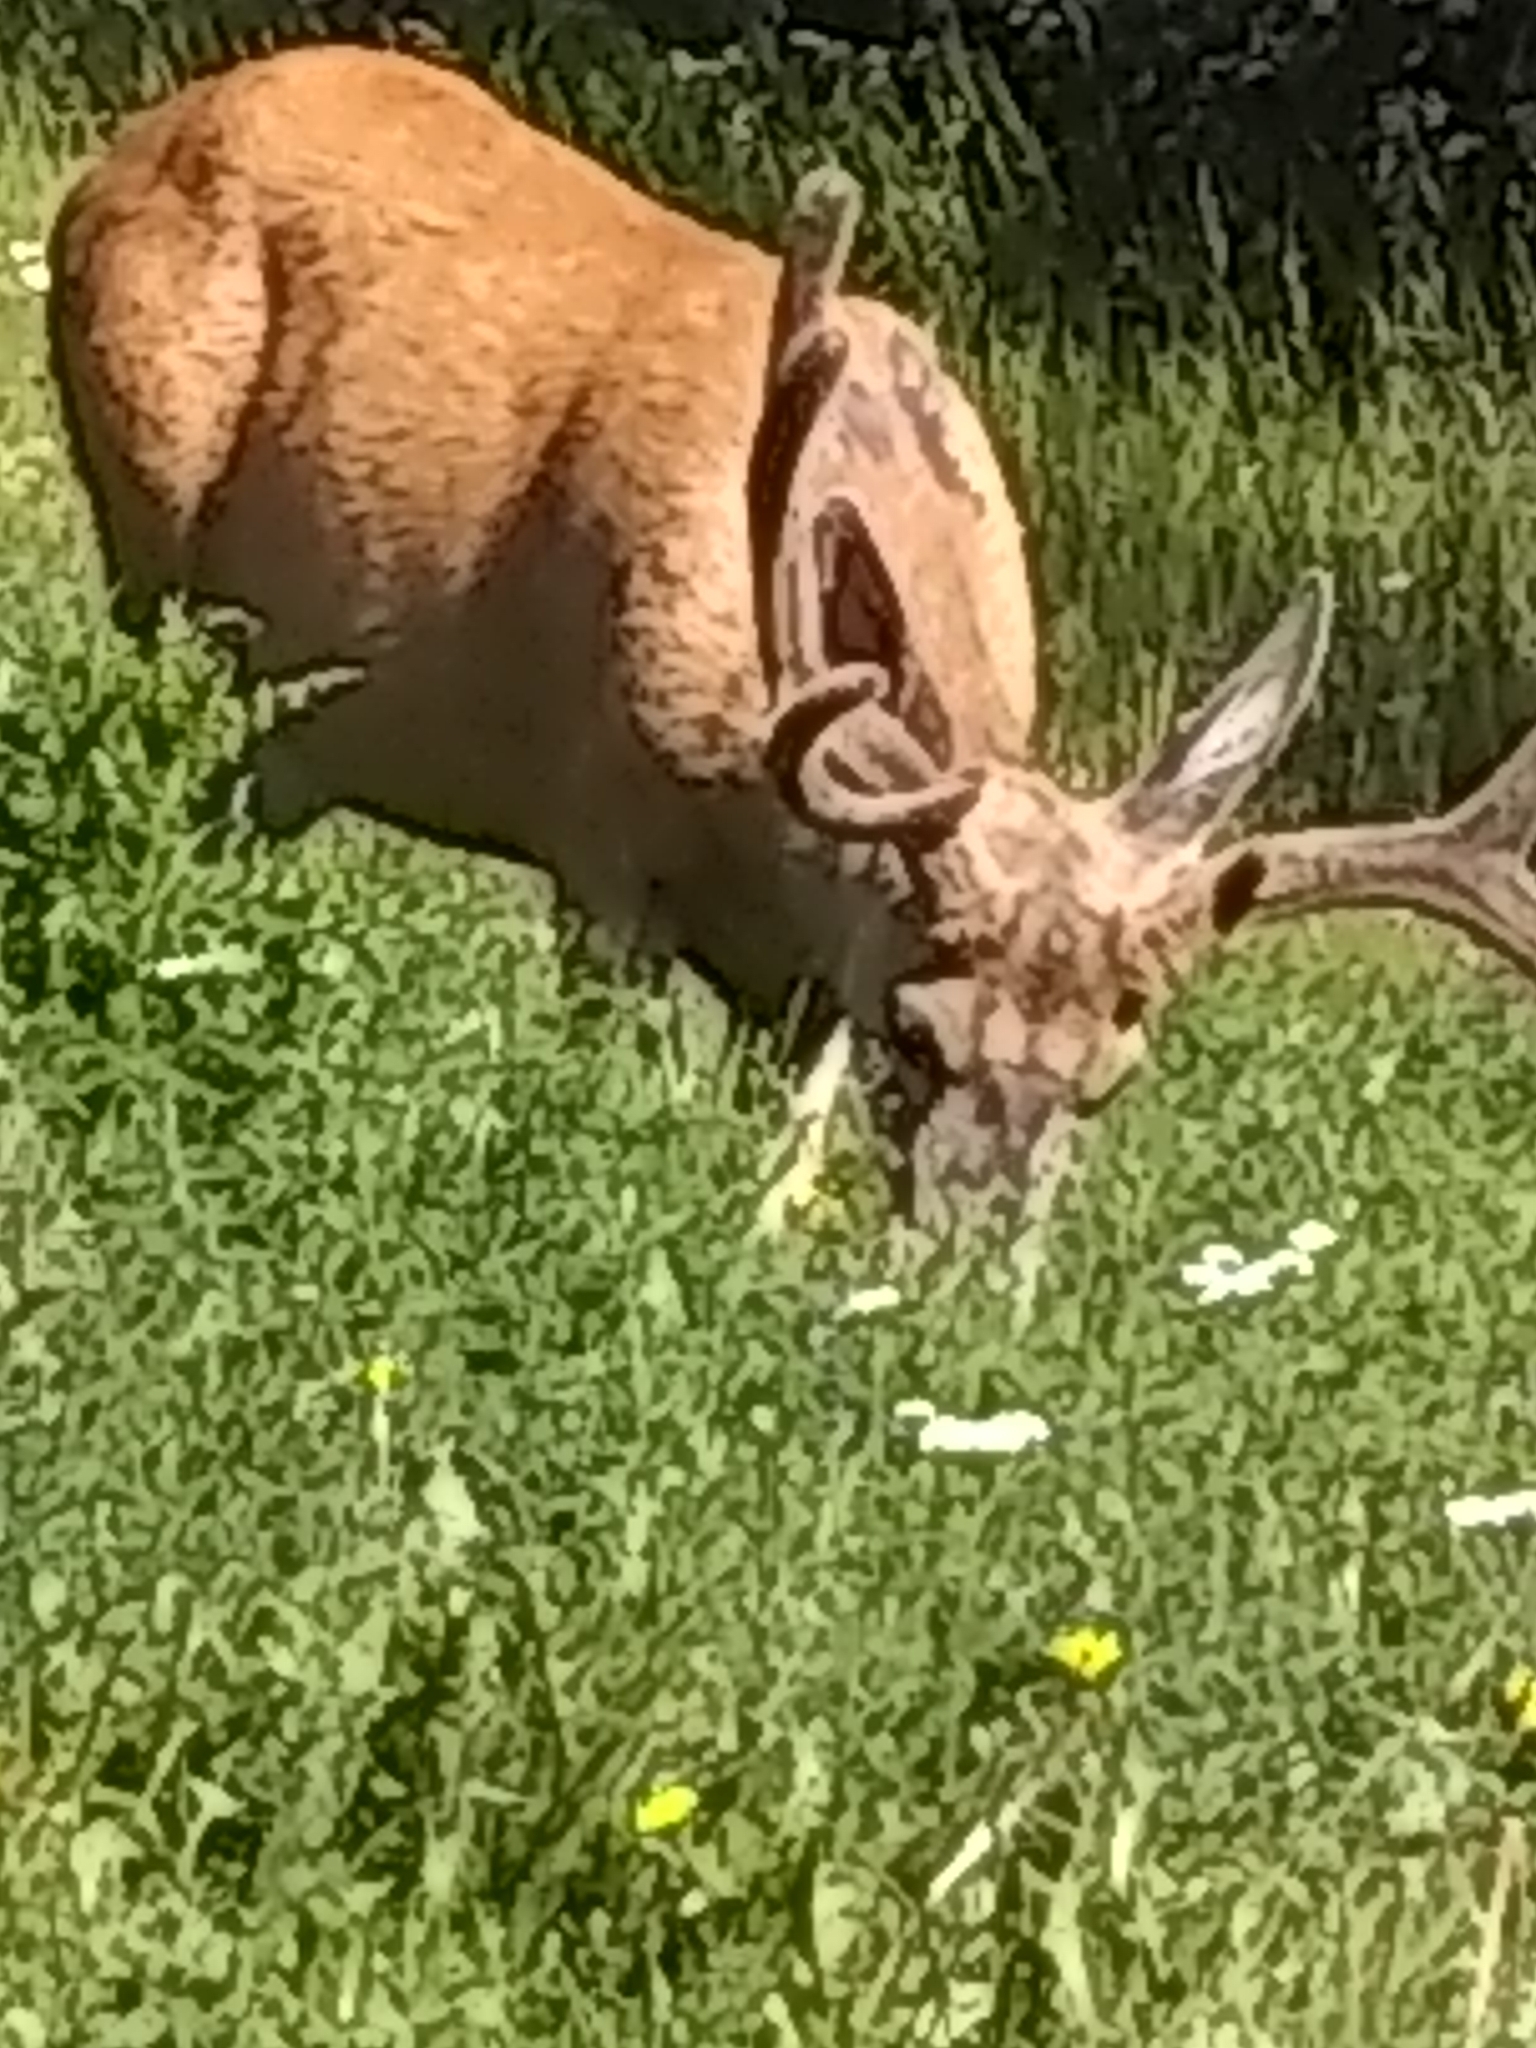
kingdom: Animalia
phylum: Chordata
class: Mammalia
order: Artiodactyla
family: Cervidae
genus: Odocoileus
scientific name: Odocoileus hemionus
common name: Mule deer
